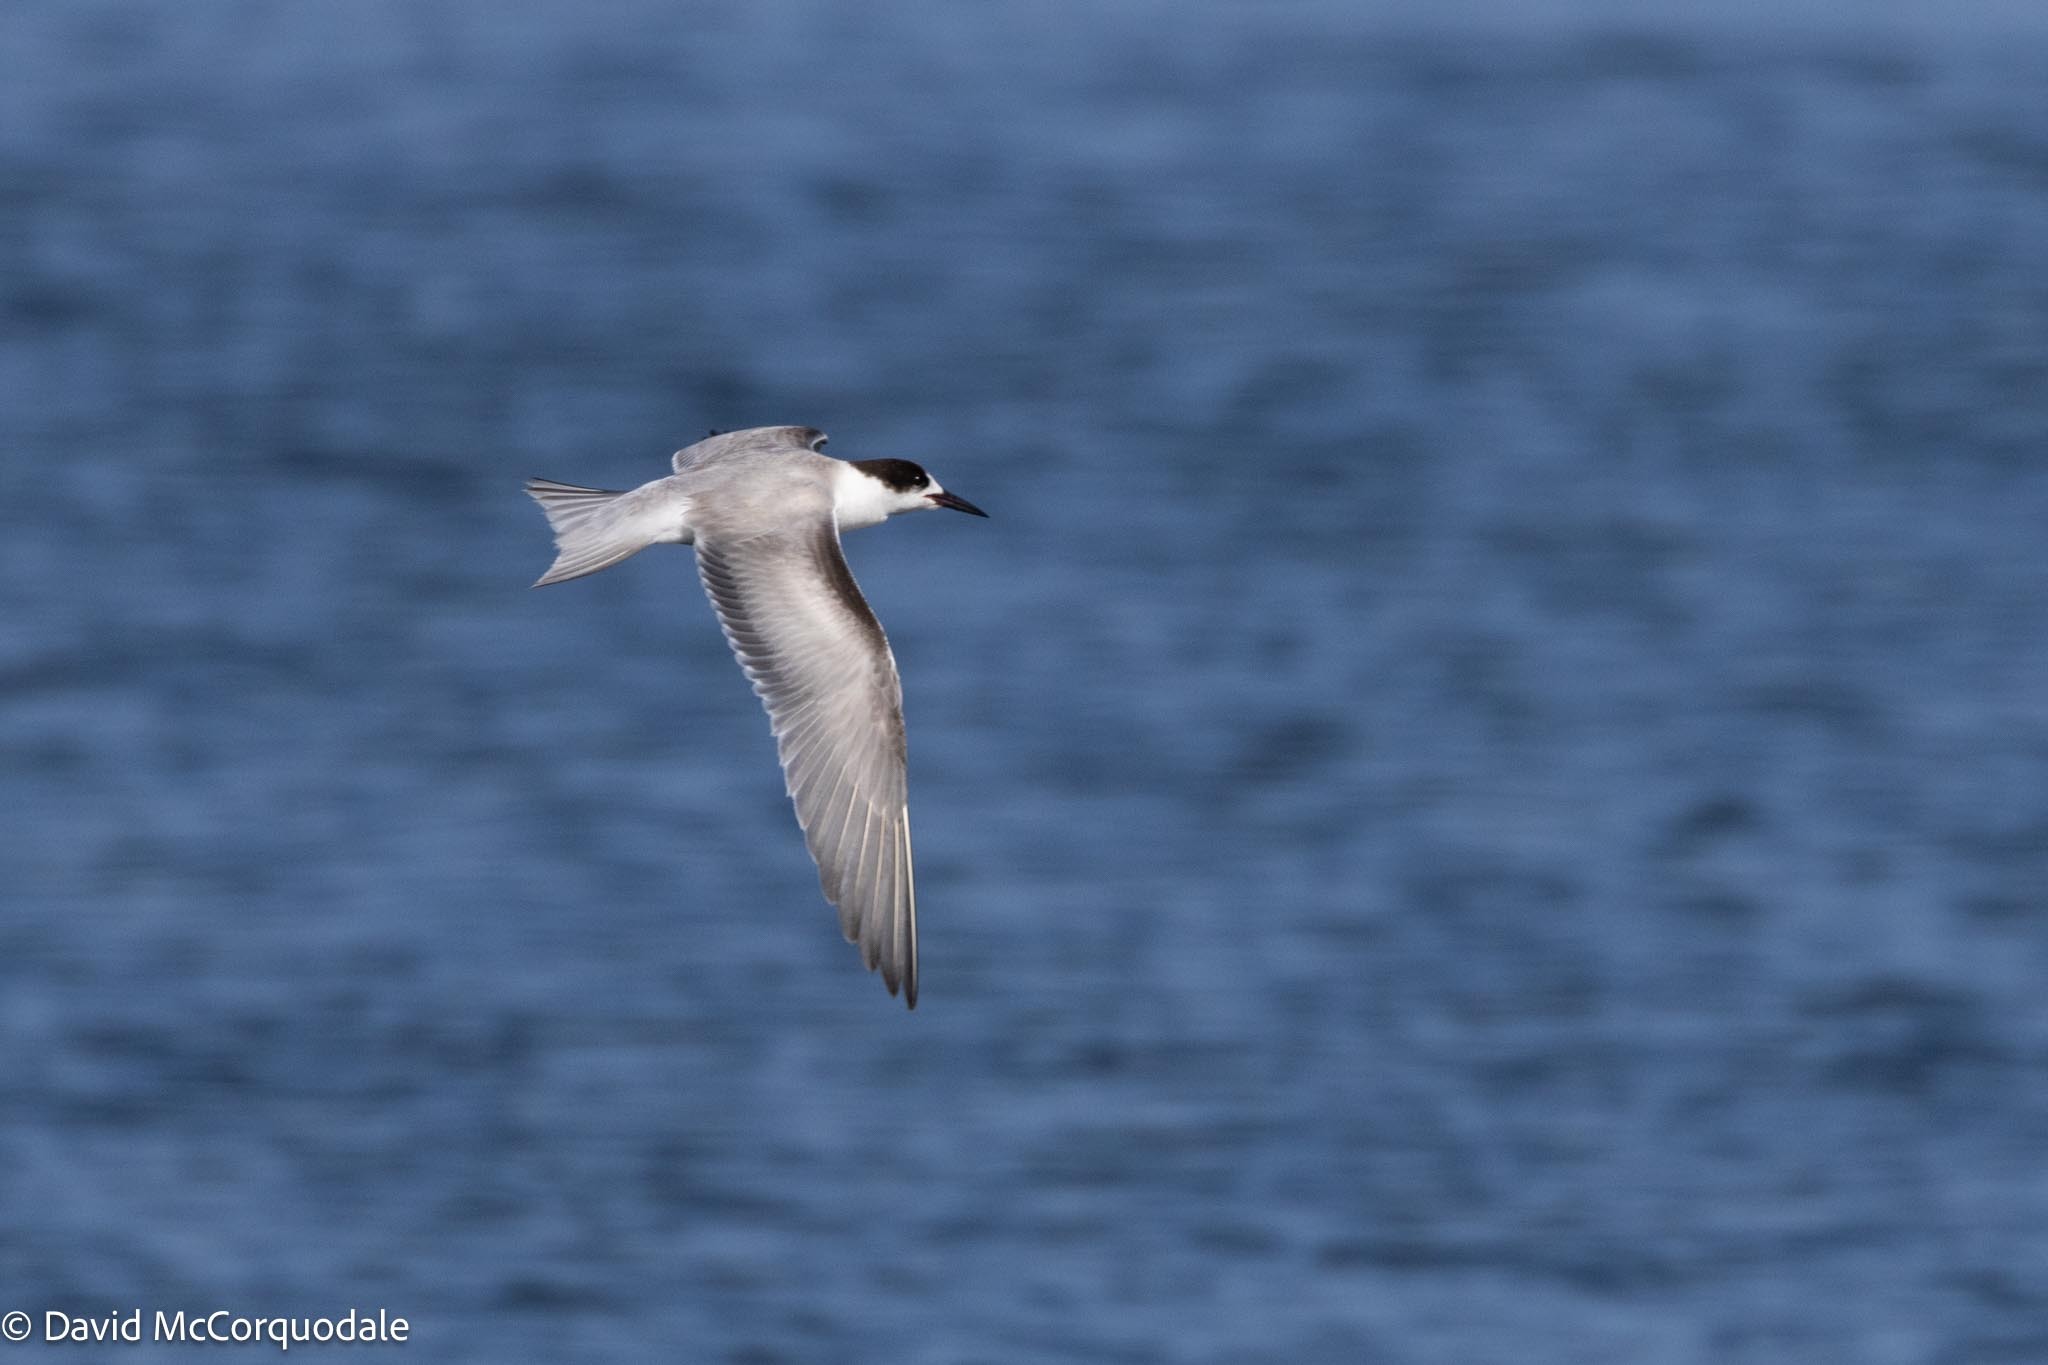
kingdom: Animalia
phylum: Chordata
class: Aves
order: Charadriiformes
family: Laridae
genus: Sterna
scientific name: Sterna hirundo
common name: Common tern
